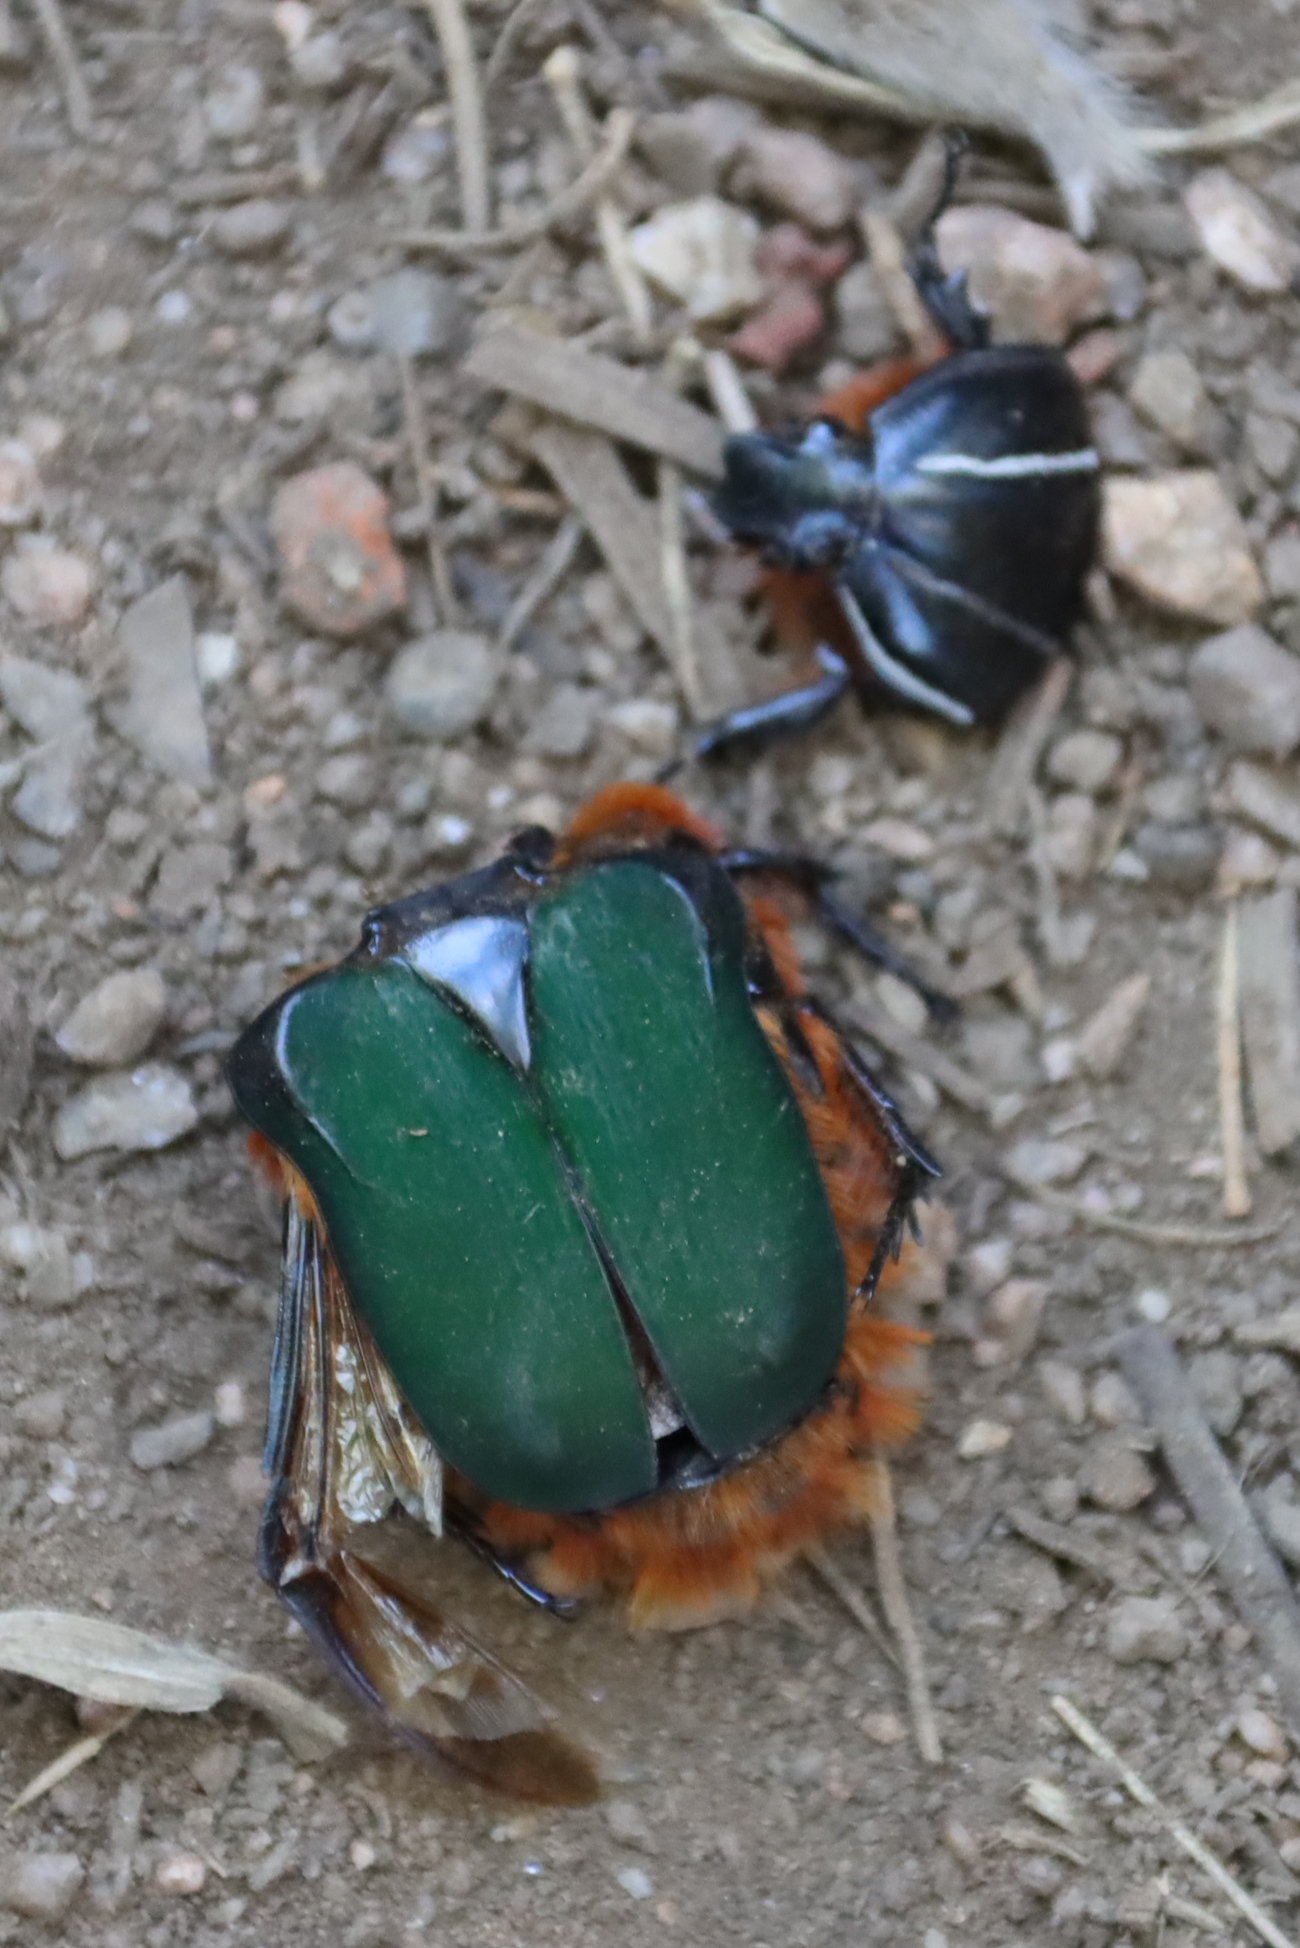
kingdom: Animalia
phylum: Arthropoda
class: Insecta
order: Coleoptera
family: Scarabaeidae
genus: Trichostetha
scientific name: Trichostetha fascicularis
